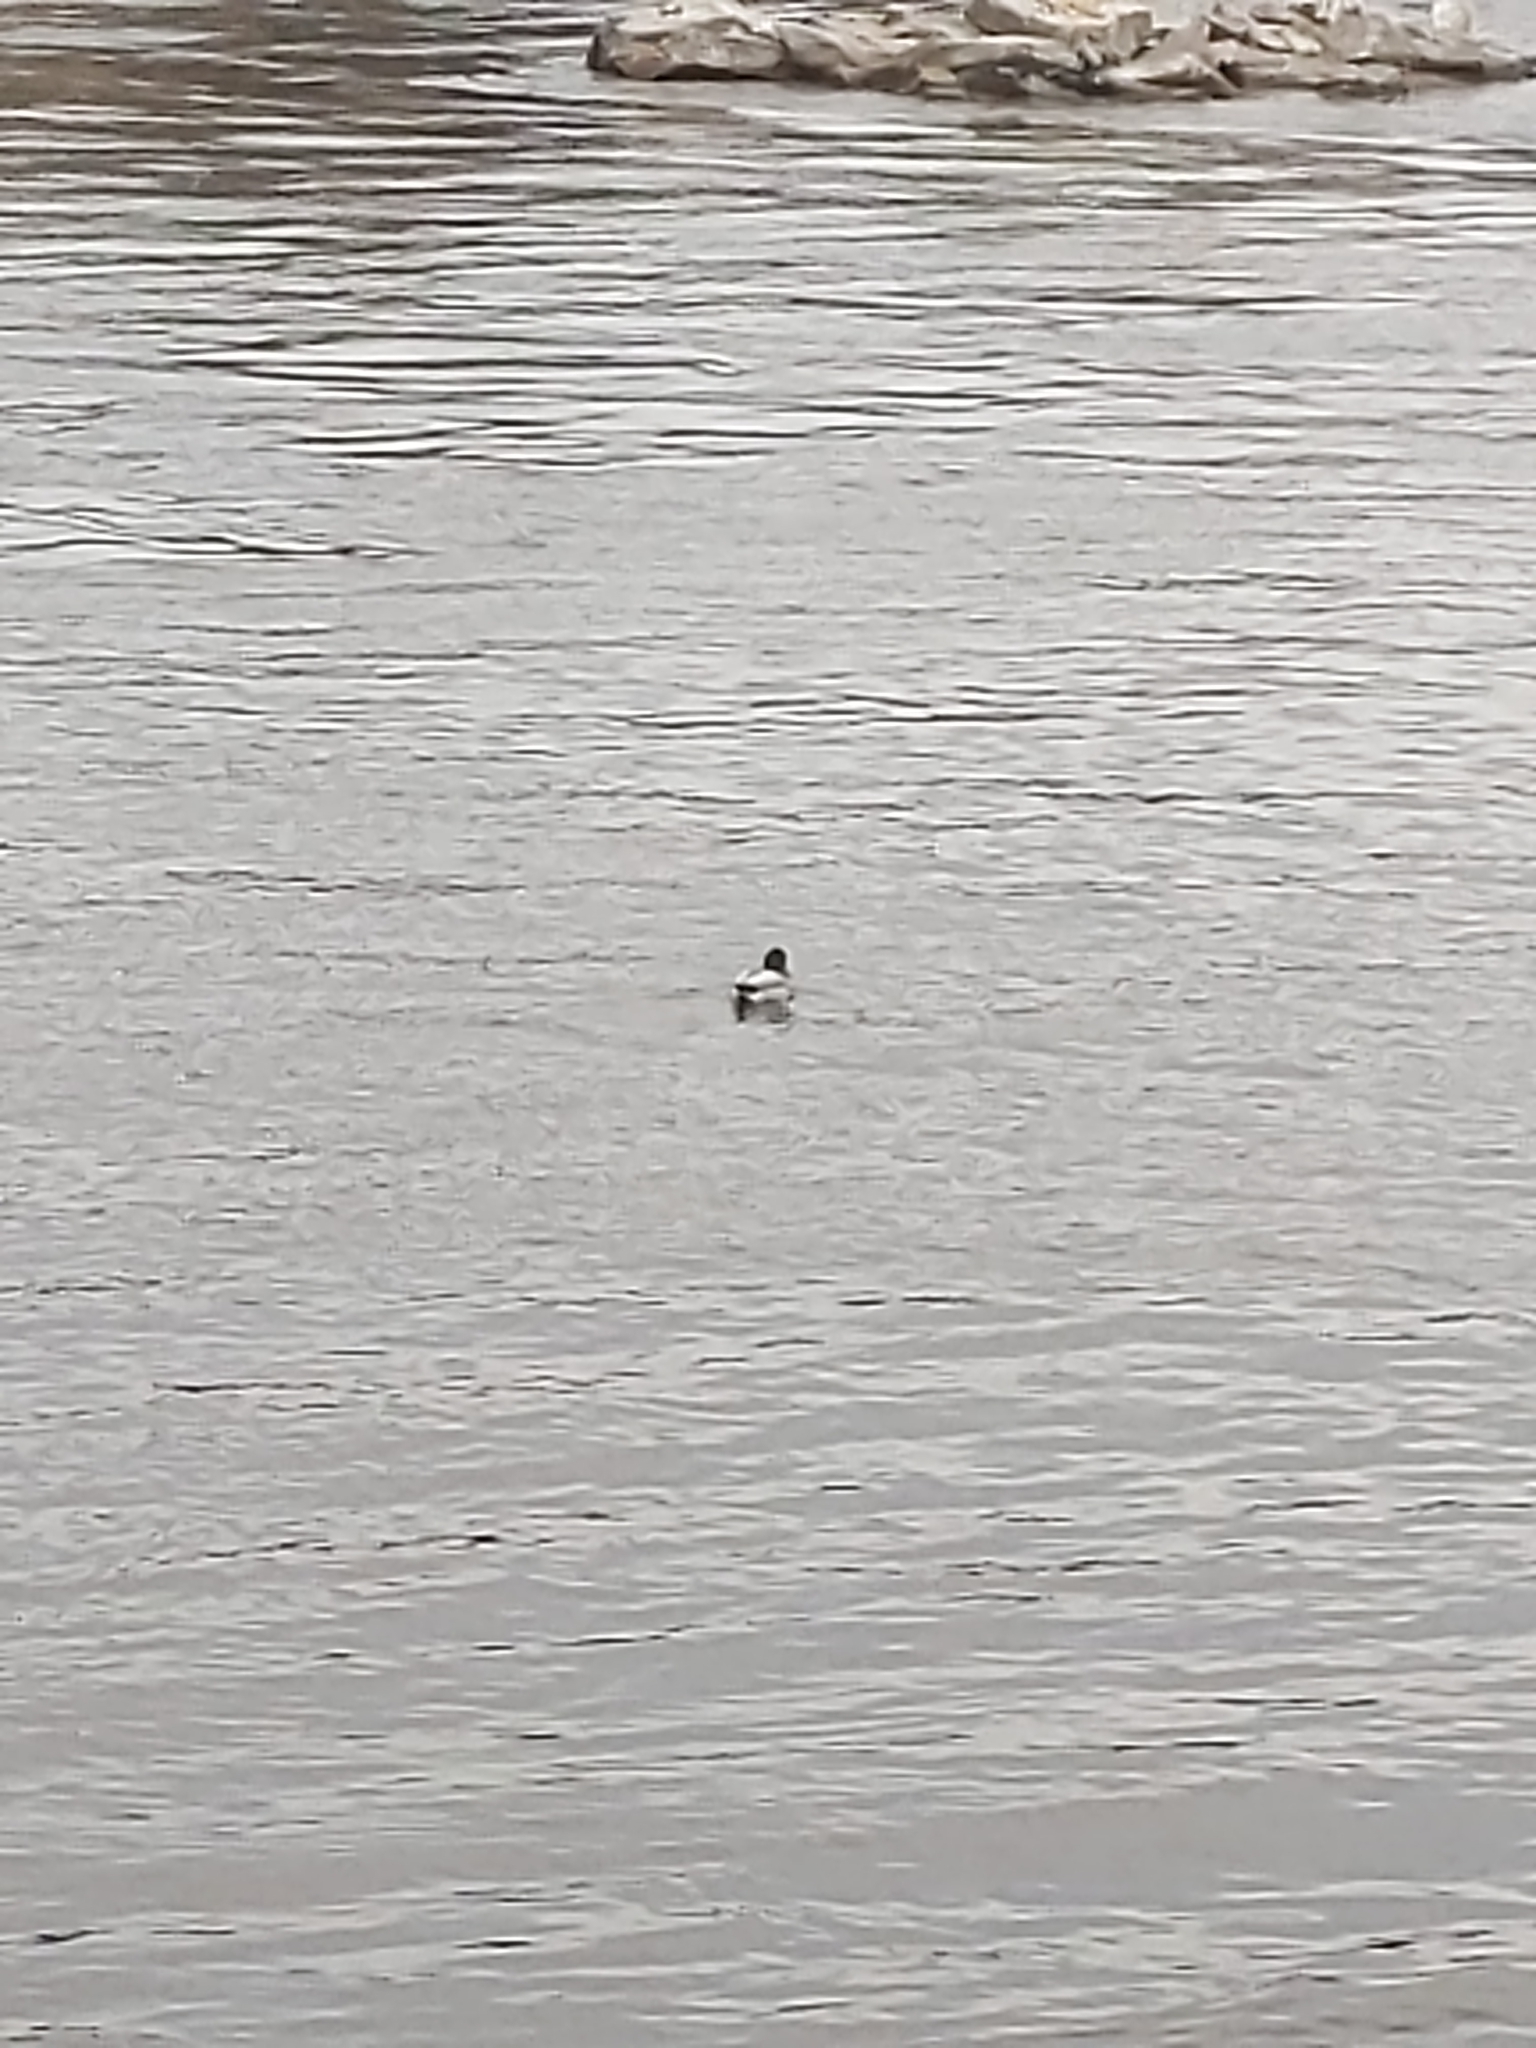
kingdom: Animalia
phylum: Chordata
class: Aves
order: Anseriformes
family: Anatidae
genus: Anas
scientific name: Anas platyrhynchos
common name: Mallard
